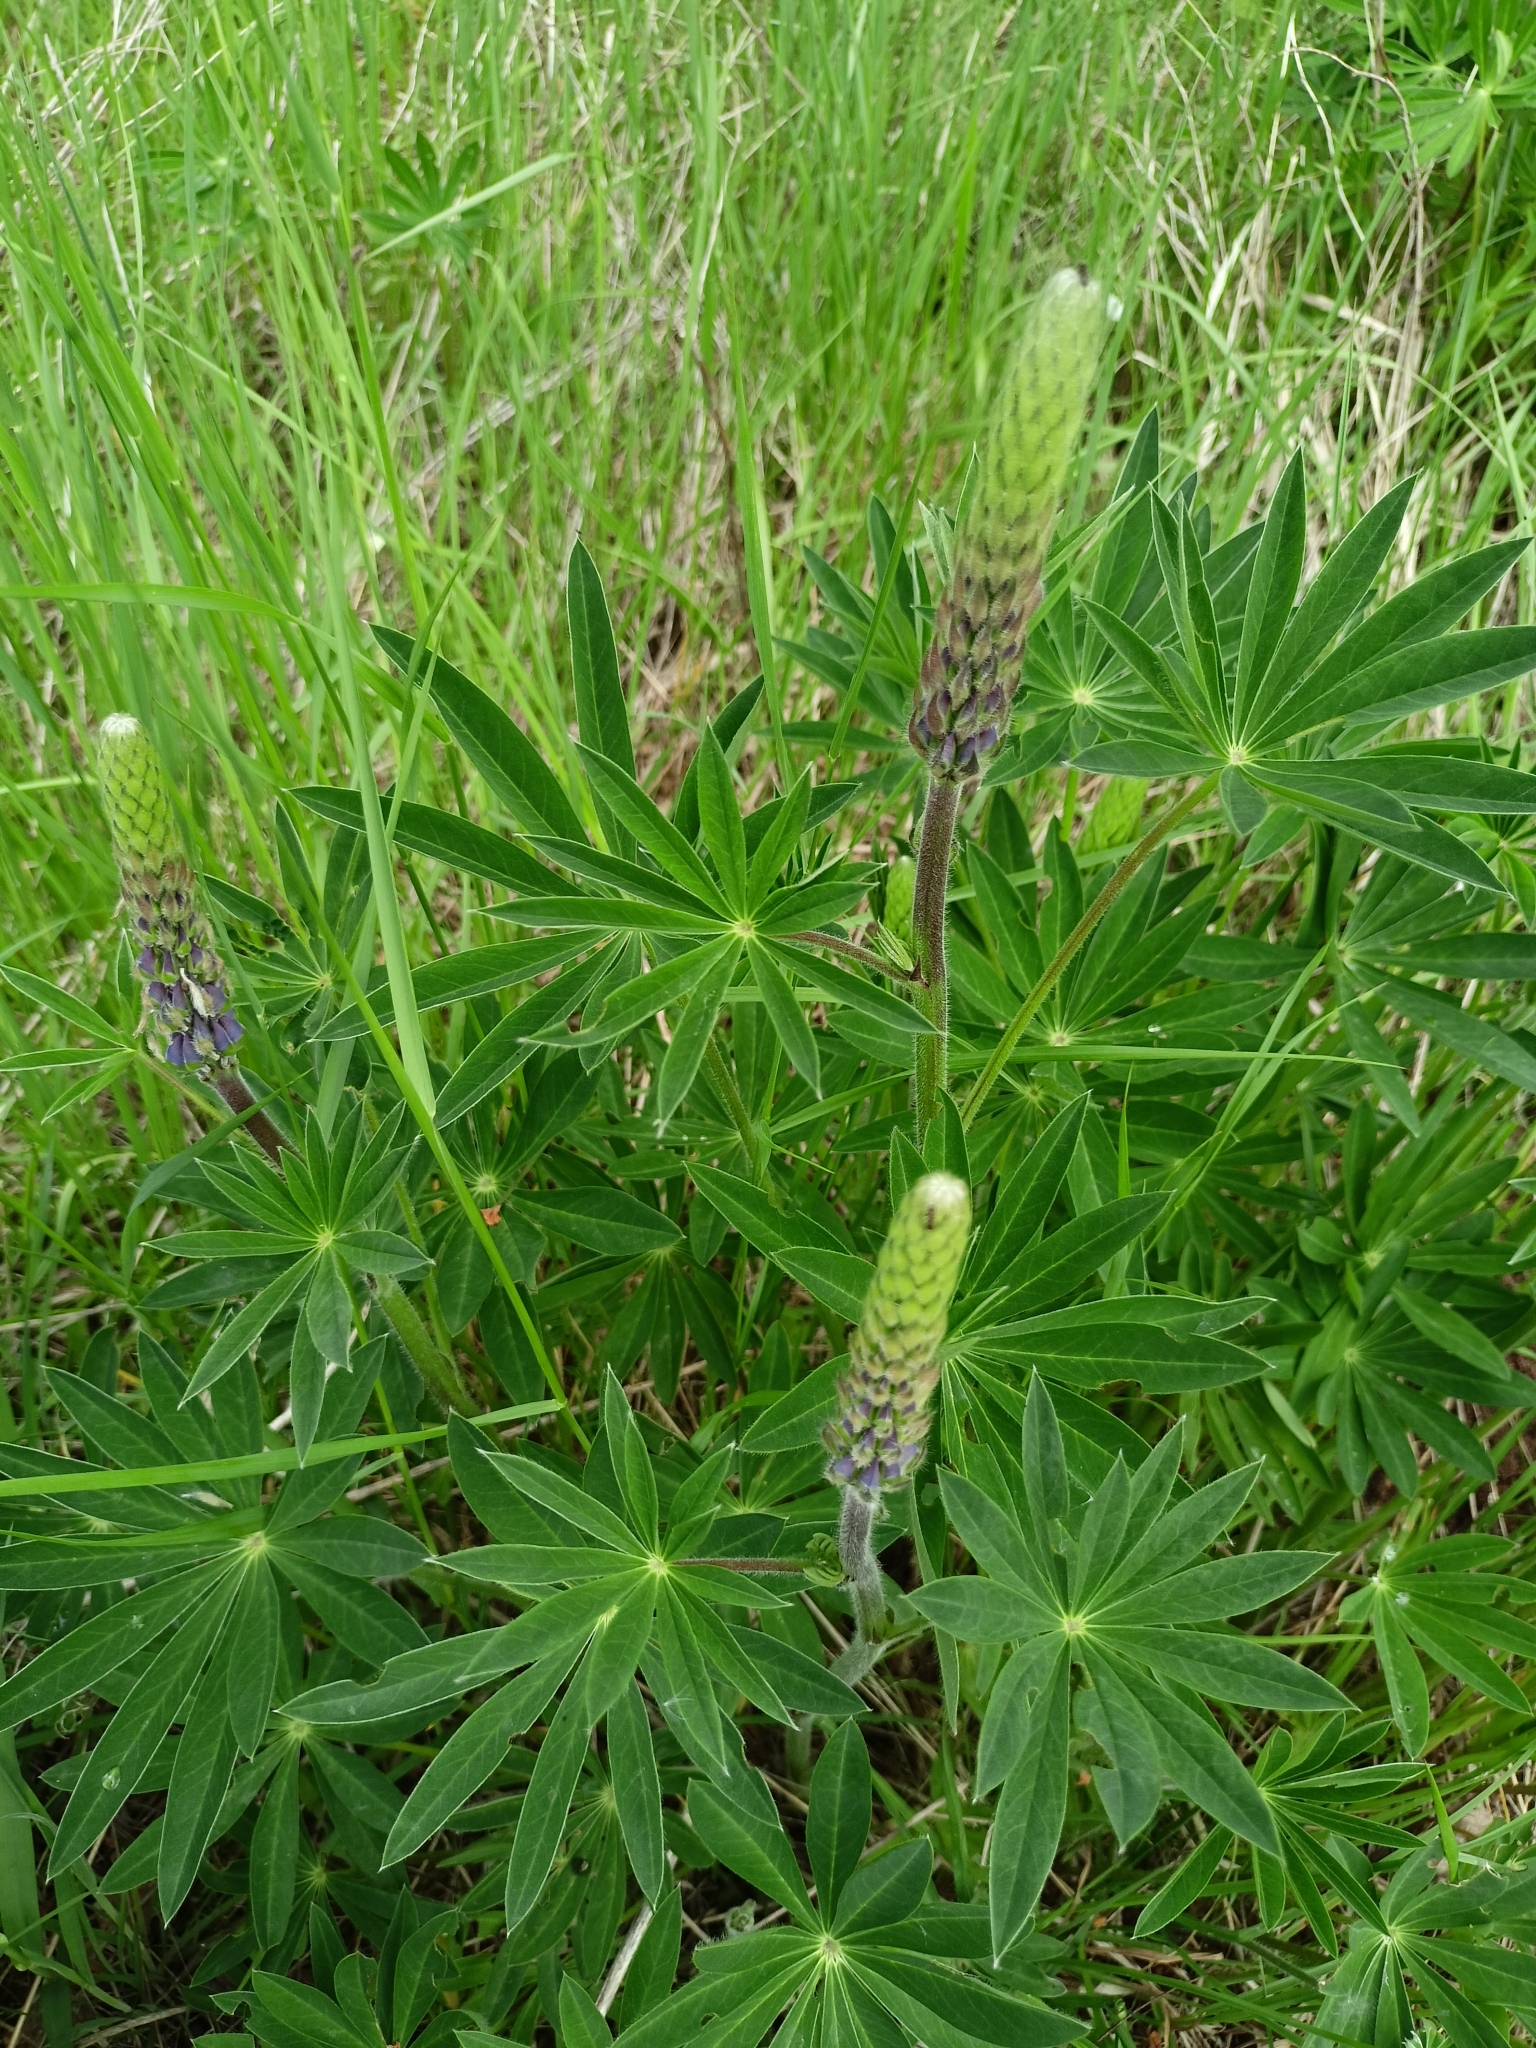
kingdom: Plantae
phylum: Tracheophyta
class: Magnoliopsida
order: Fabales
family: Fabaceae
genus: Lupinus
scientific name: Lupinus polyphyllus
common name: Garden lupin
